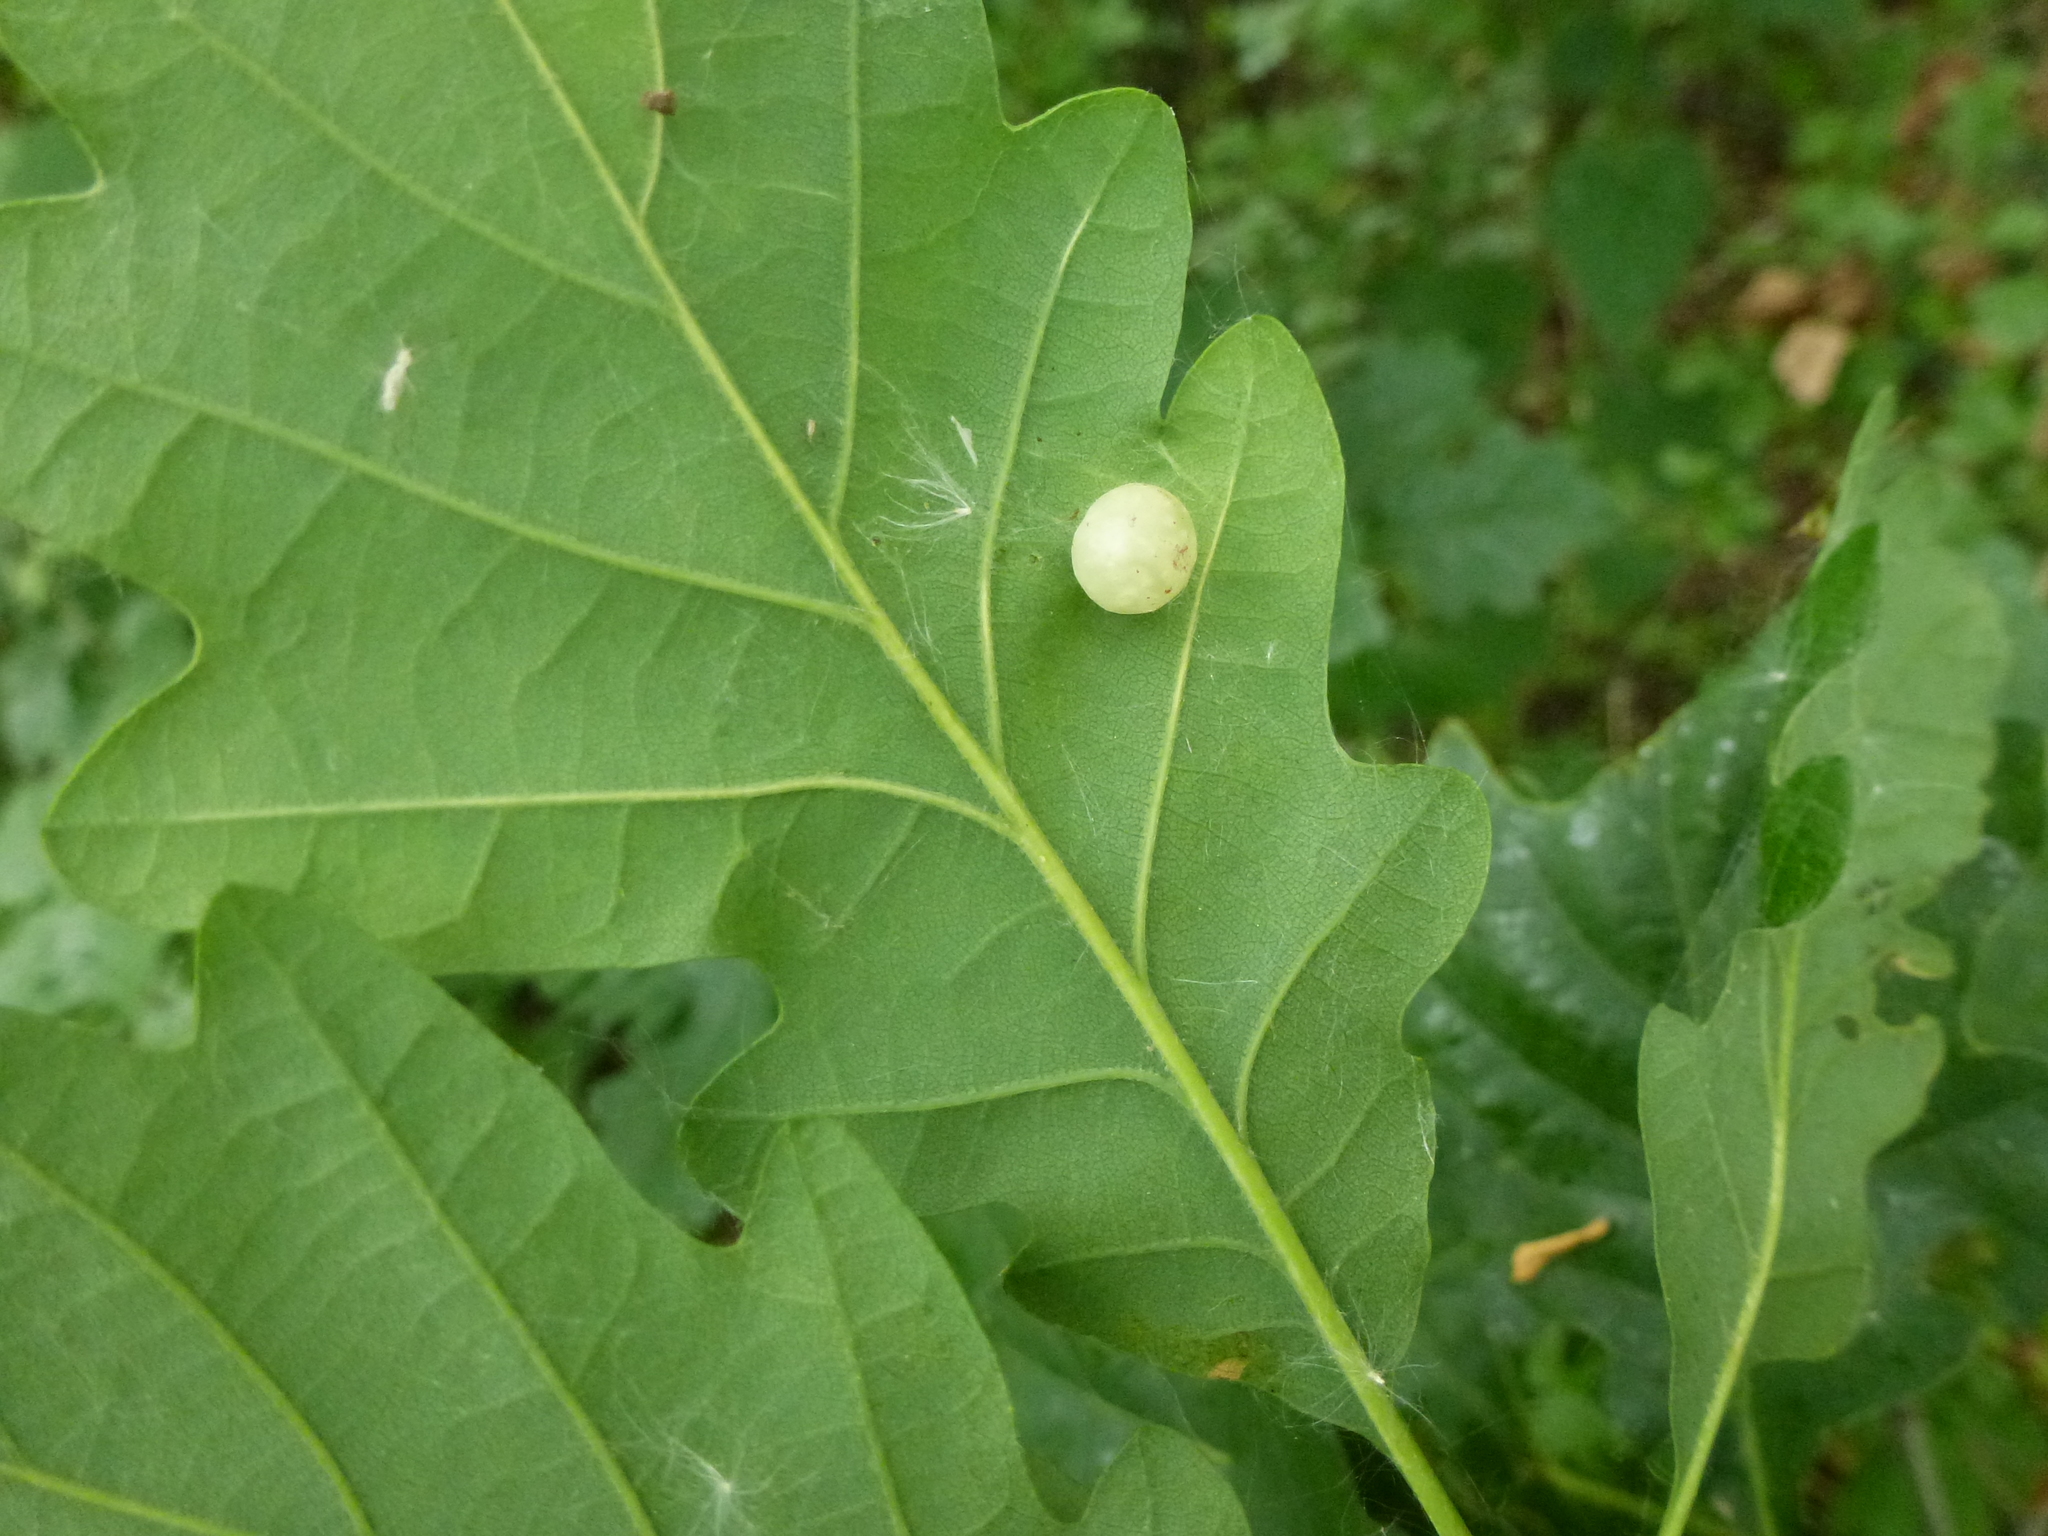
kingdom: Animalia
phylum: Arthropoda
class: Insecta
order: Hymenoptera
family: Cynipidae
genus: Cynips
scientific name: Cynips quercusfolii
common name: Cherry gall
